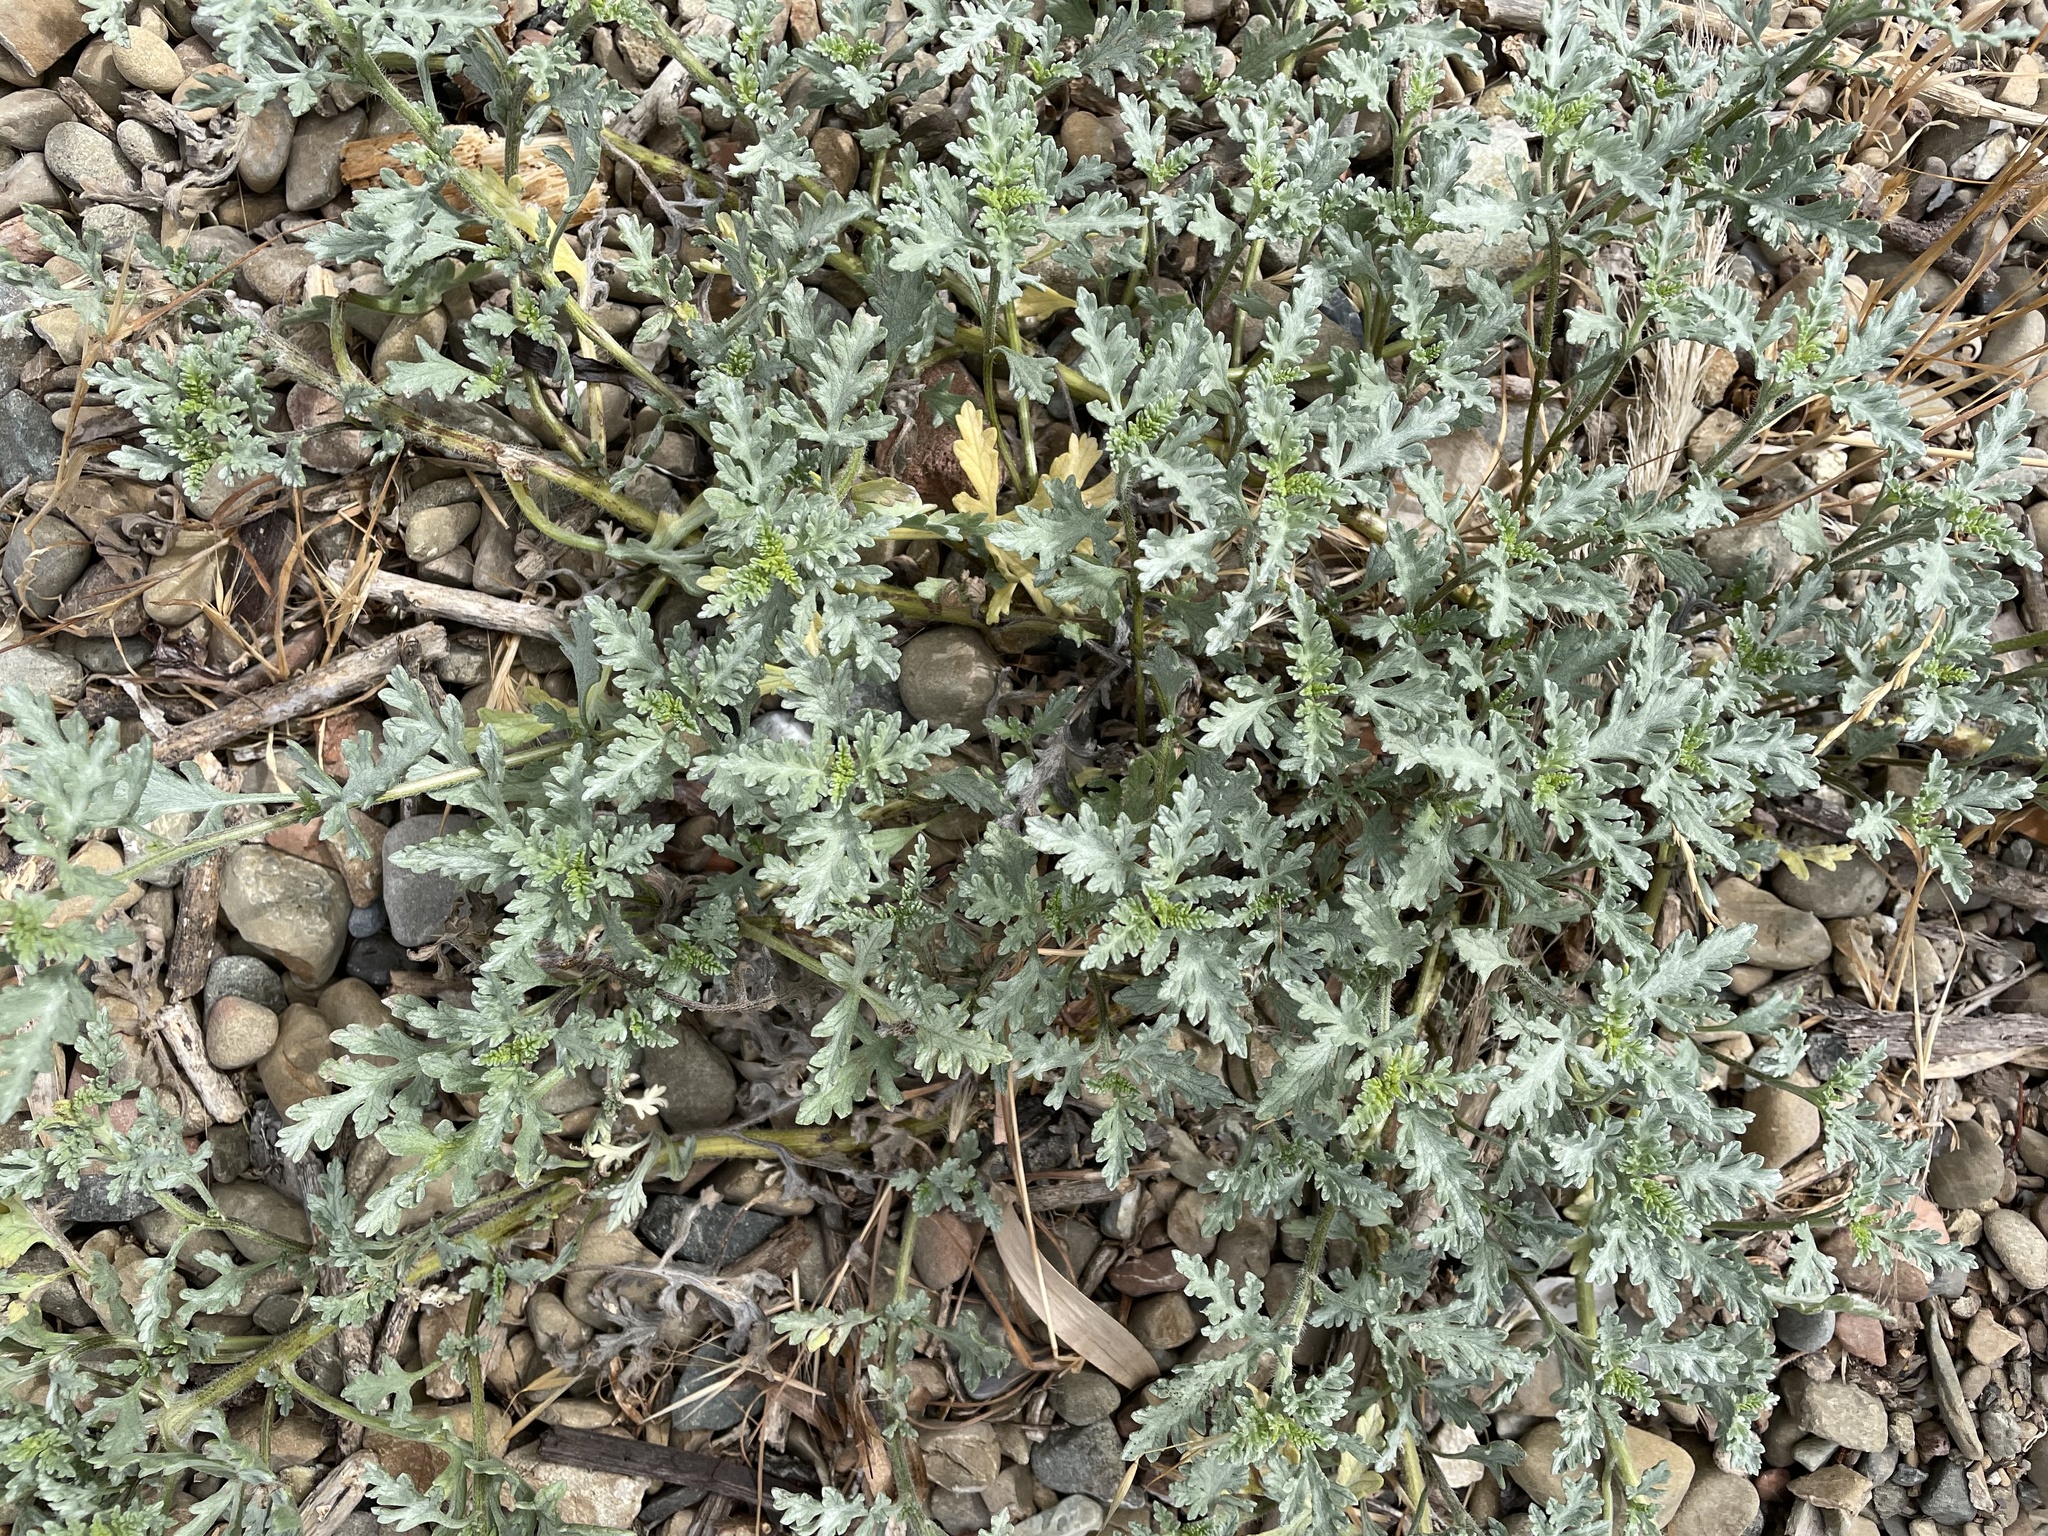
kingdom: Plantae
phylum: Tracheophyta
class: Magnoliopsida
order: Asterales
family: Asteraceae
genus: Ambrosia
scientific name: Ambrosia chamissonis
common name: Beachbur
